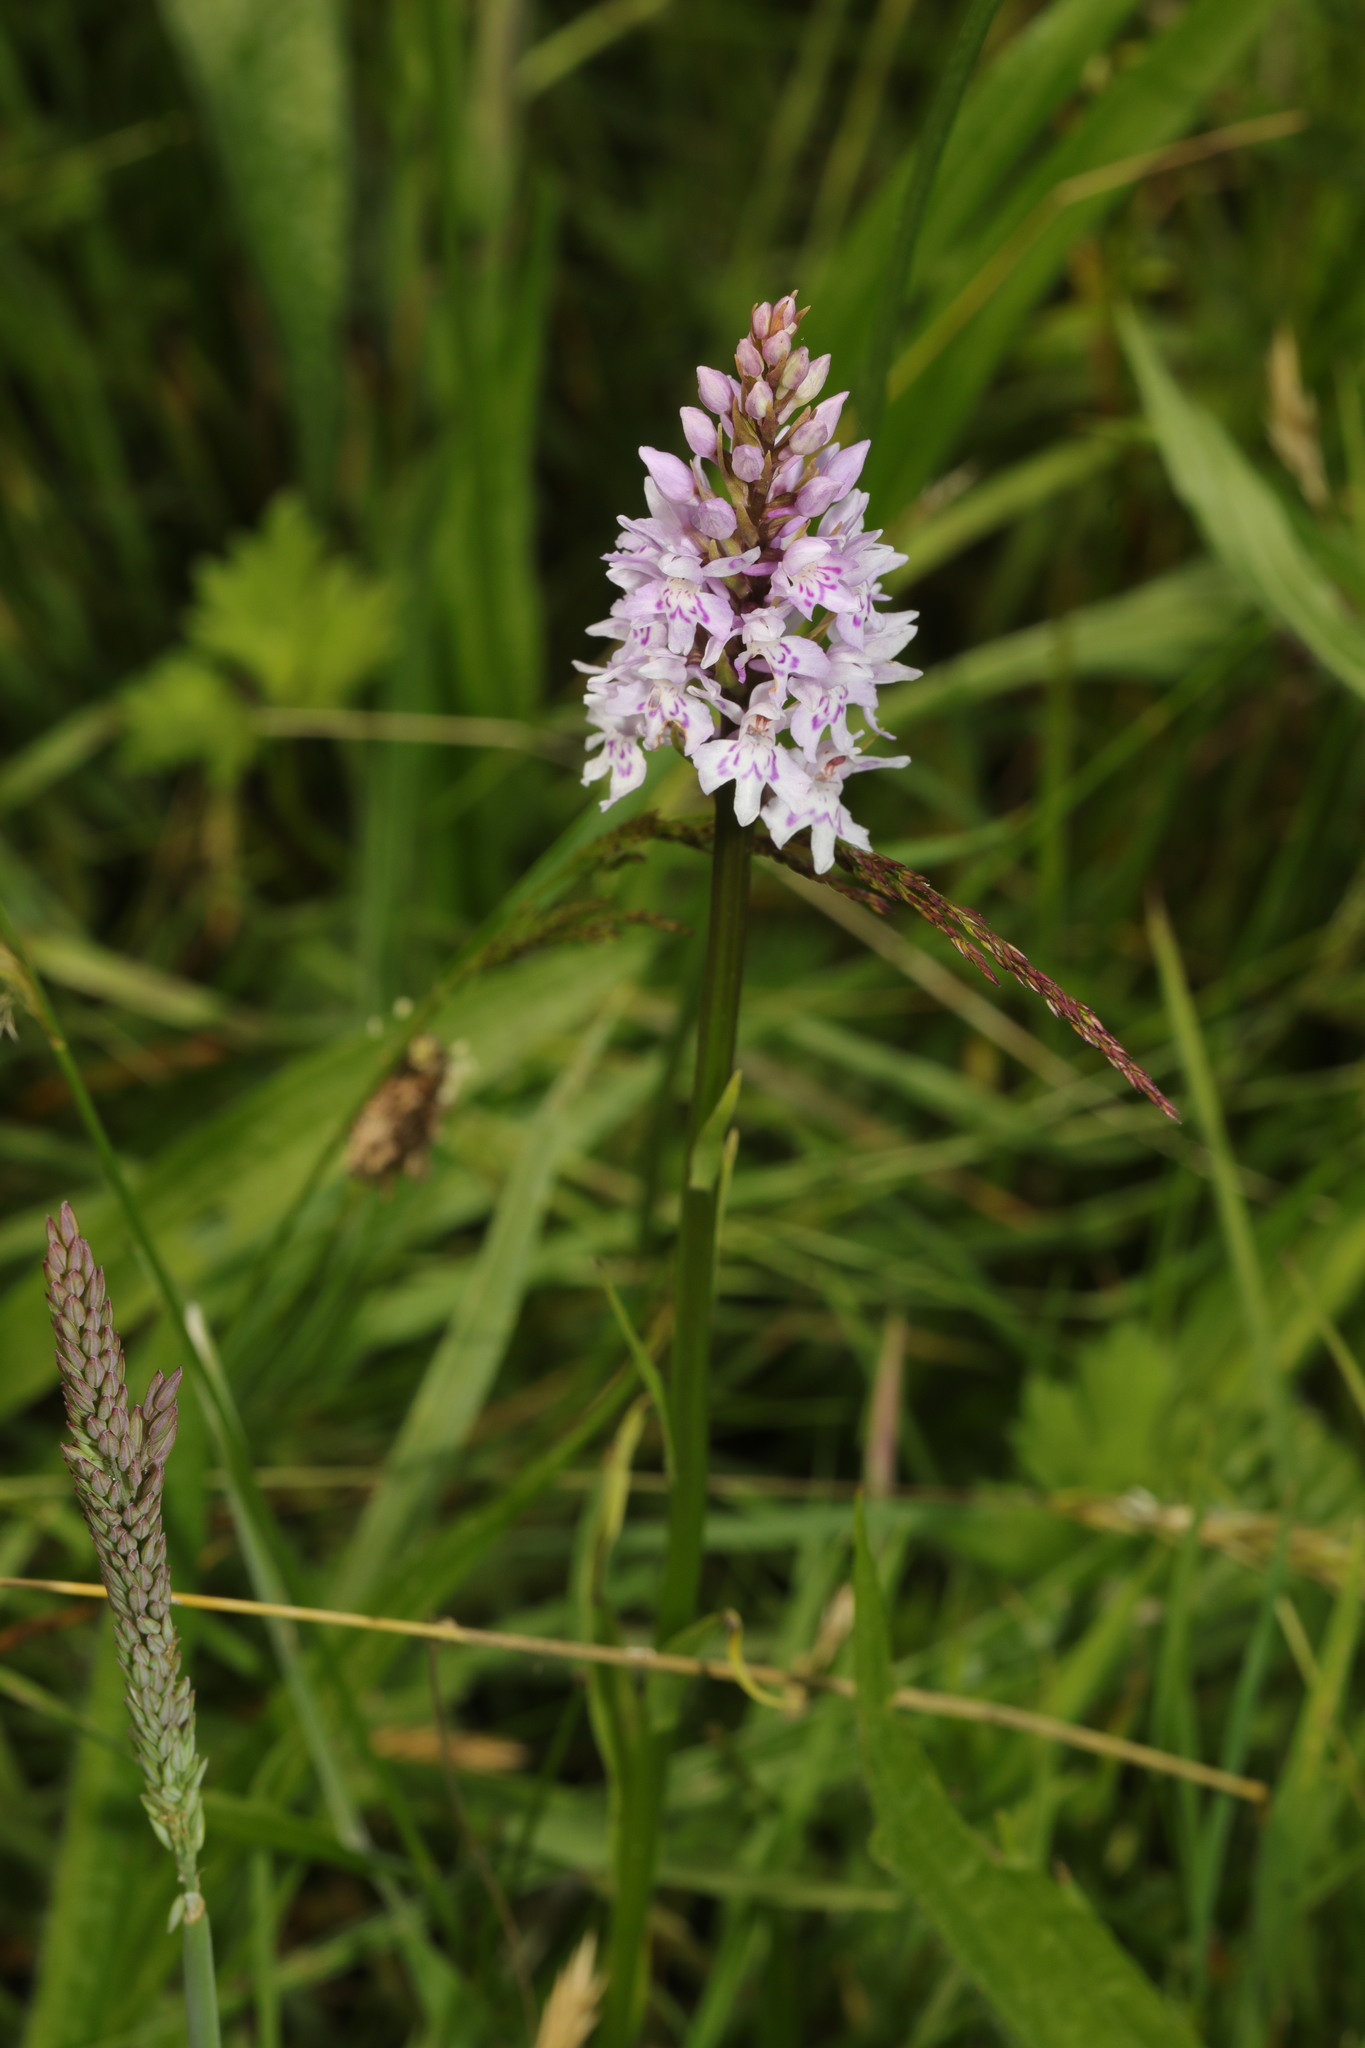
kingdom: Plantae
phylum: Tracheophyta
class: Liliopsida
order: Asparagales
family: Orchidaceae
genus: Dactylorhiza
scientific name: Dactylorhiza maculata
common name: Heath spotted-orchid
